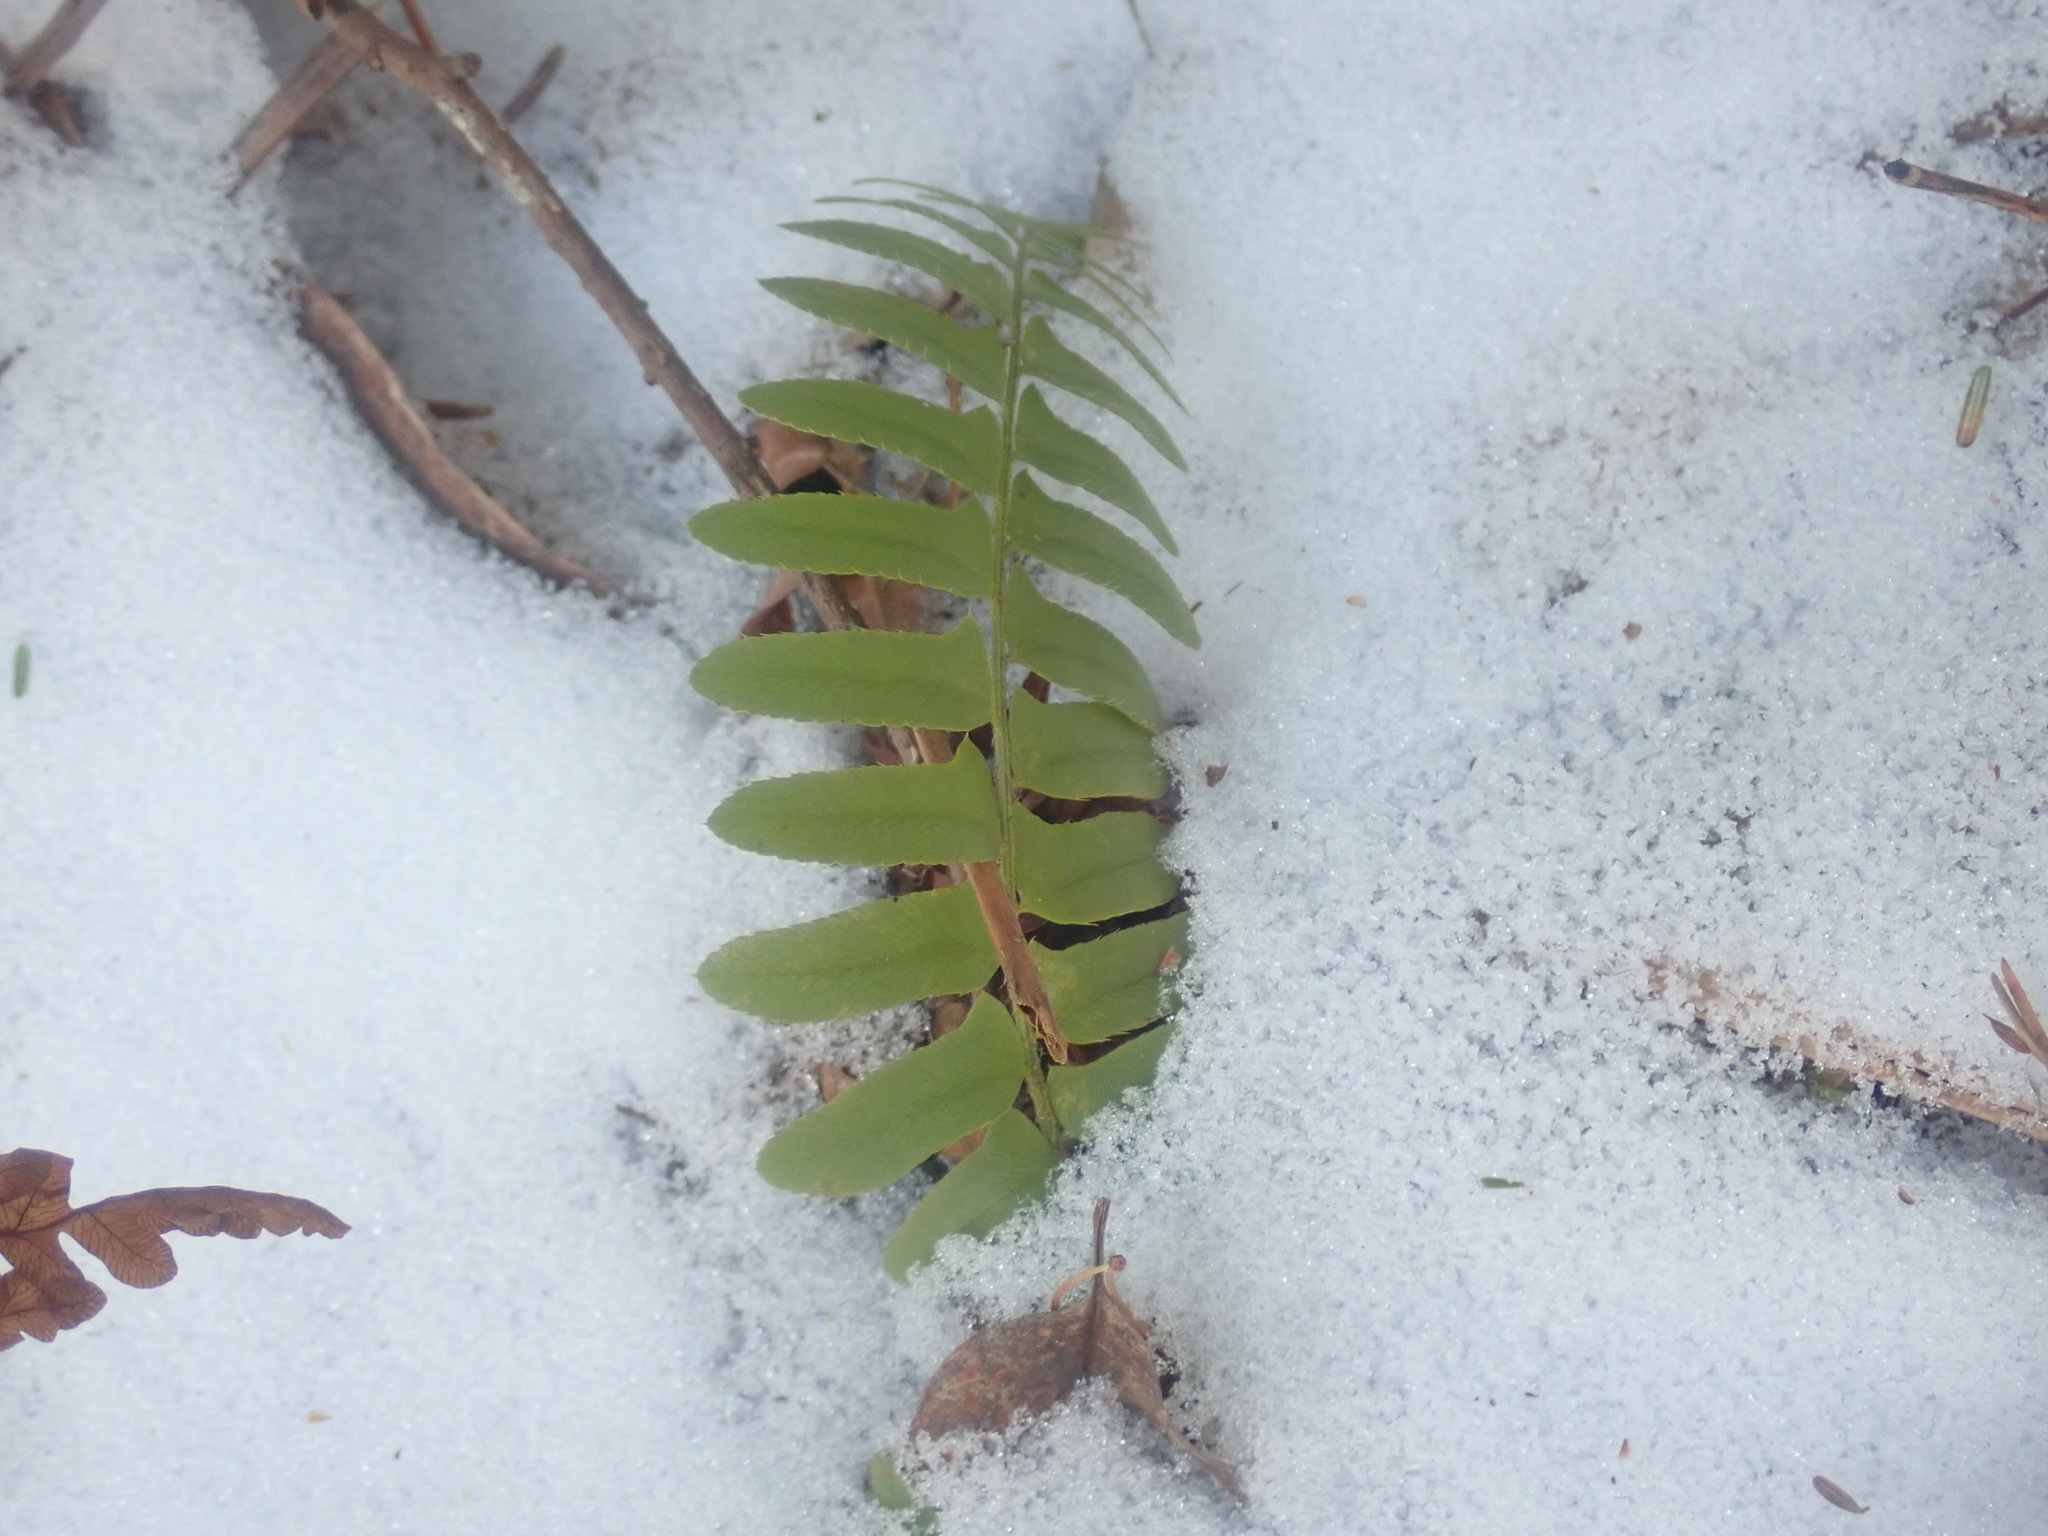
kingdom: Plantae
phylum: Tracheophyta
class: Polypodiopsida
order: Polypodiales
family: Dryopteridaceae
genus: Polystichum
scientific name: Polystichum acrostichoides
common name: Christmas fern
